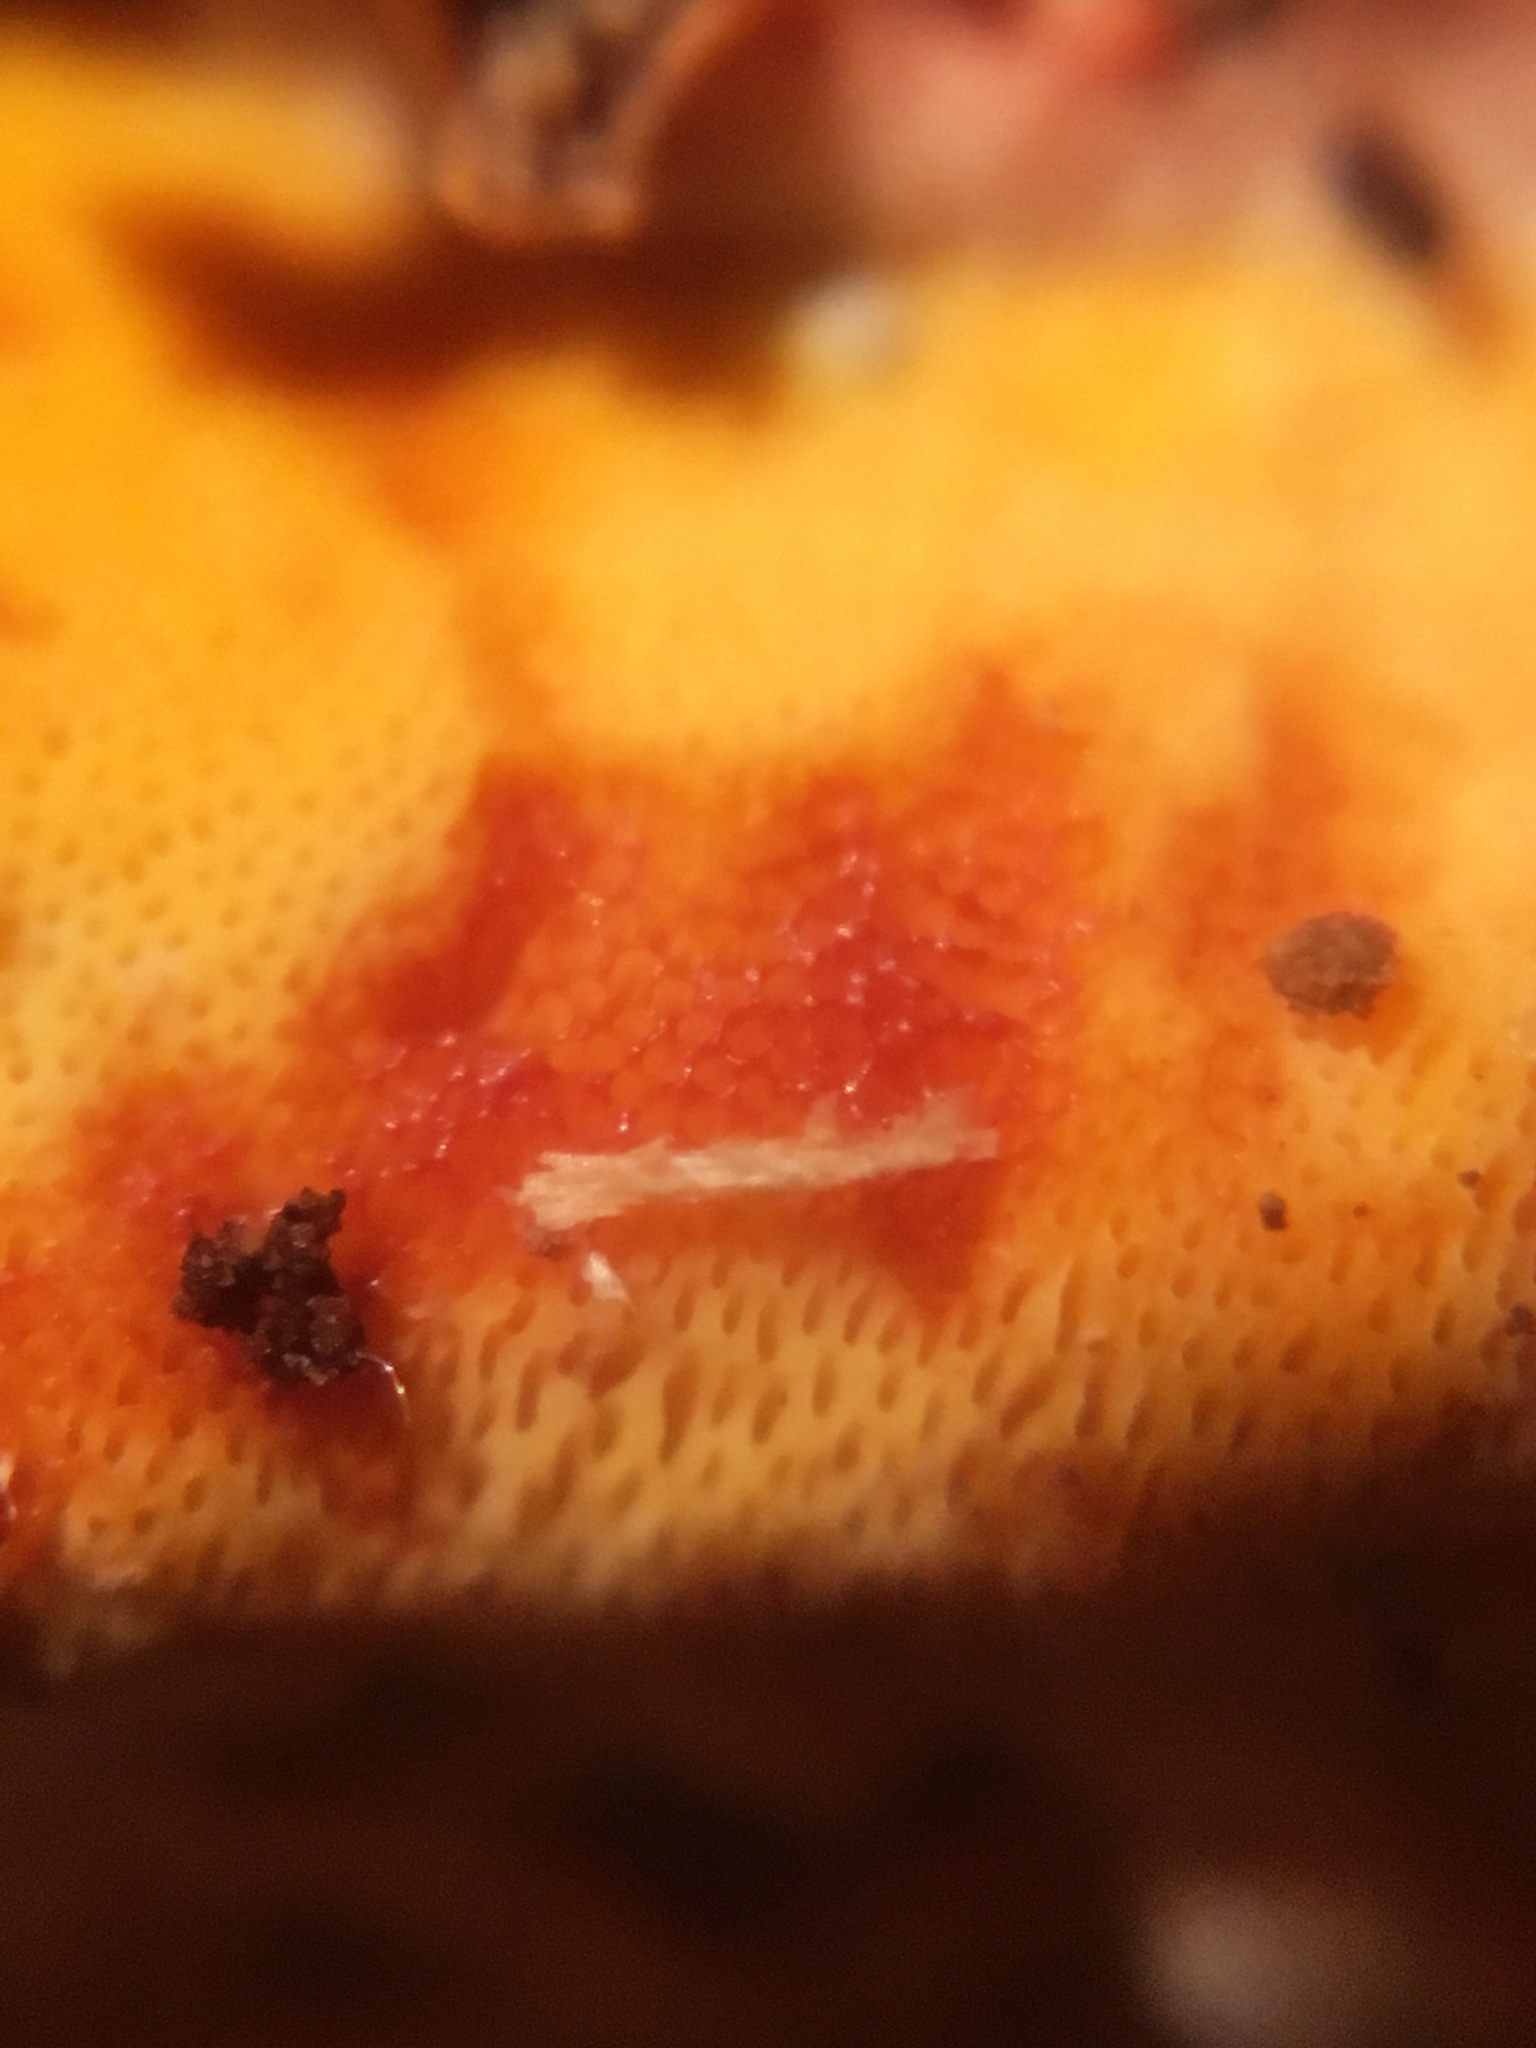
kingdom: Fungi
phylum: Basidiomycota
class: Agaricomycetes
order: Polyporales
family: Irpicaceae
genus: Ceriporia
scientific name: Ceriporia spissa
